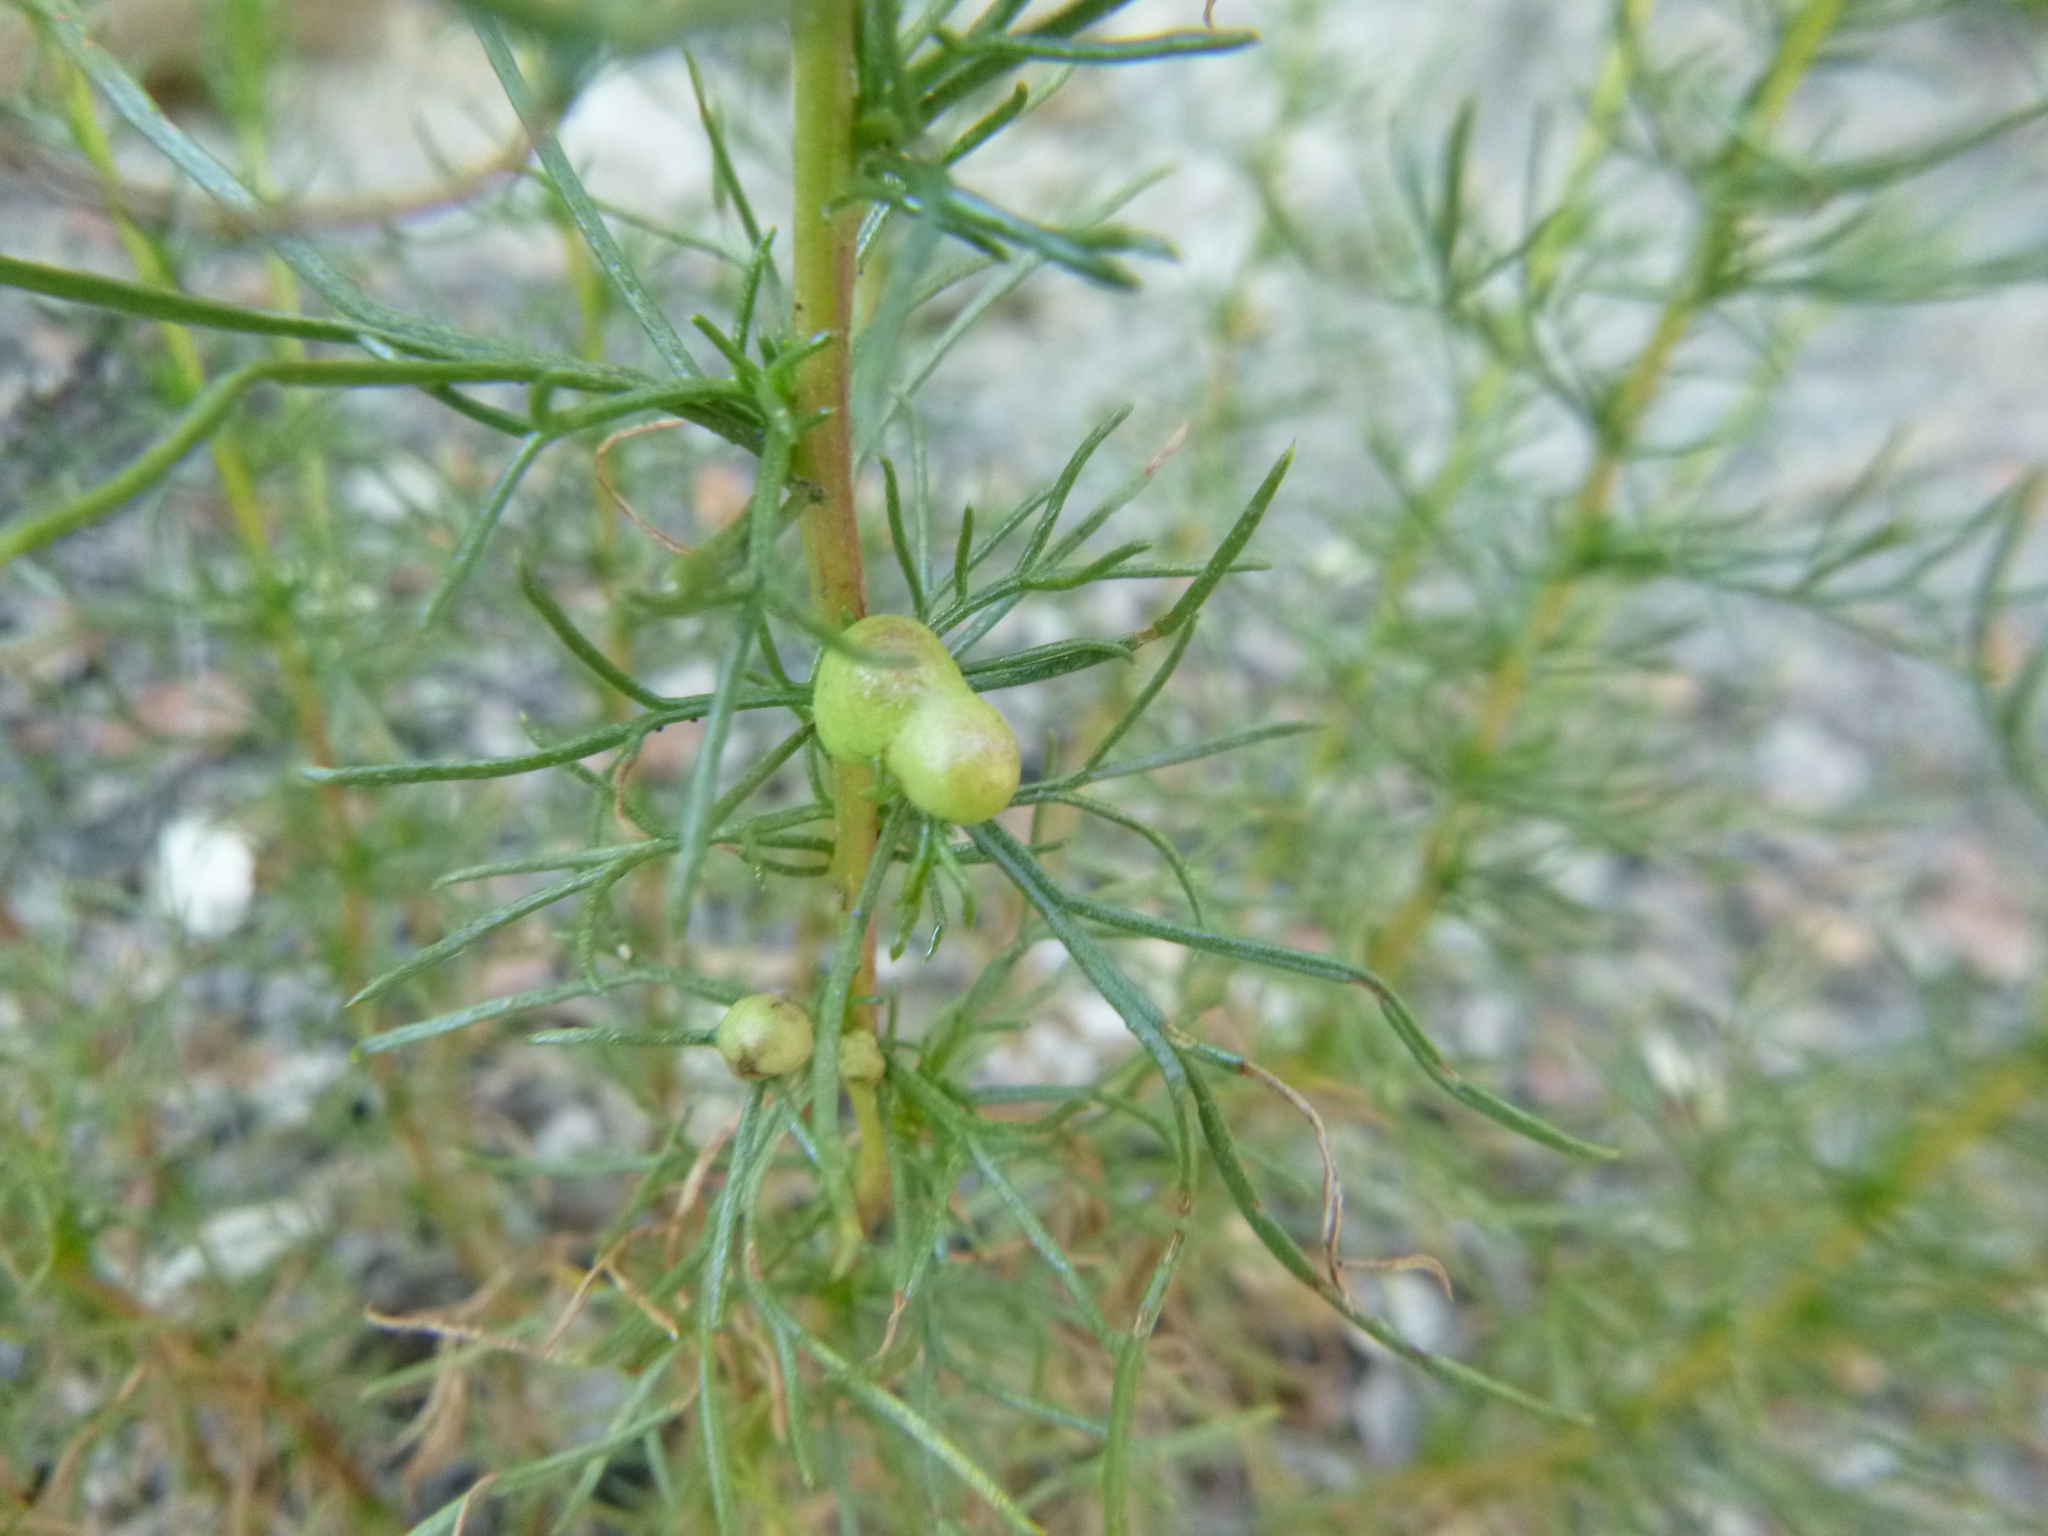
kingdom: Animalia
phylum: Arthropoda
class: Insecta
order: Diptera
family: Cecidomyiidae
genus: Rhopalomyia
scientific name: Rhopalomyia baccarum
